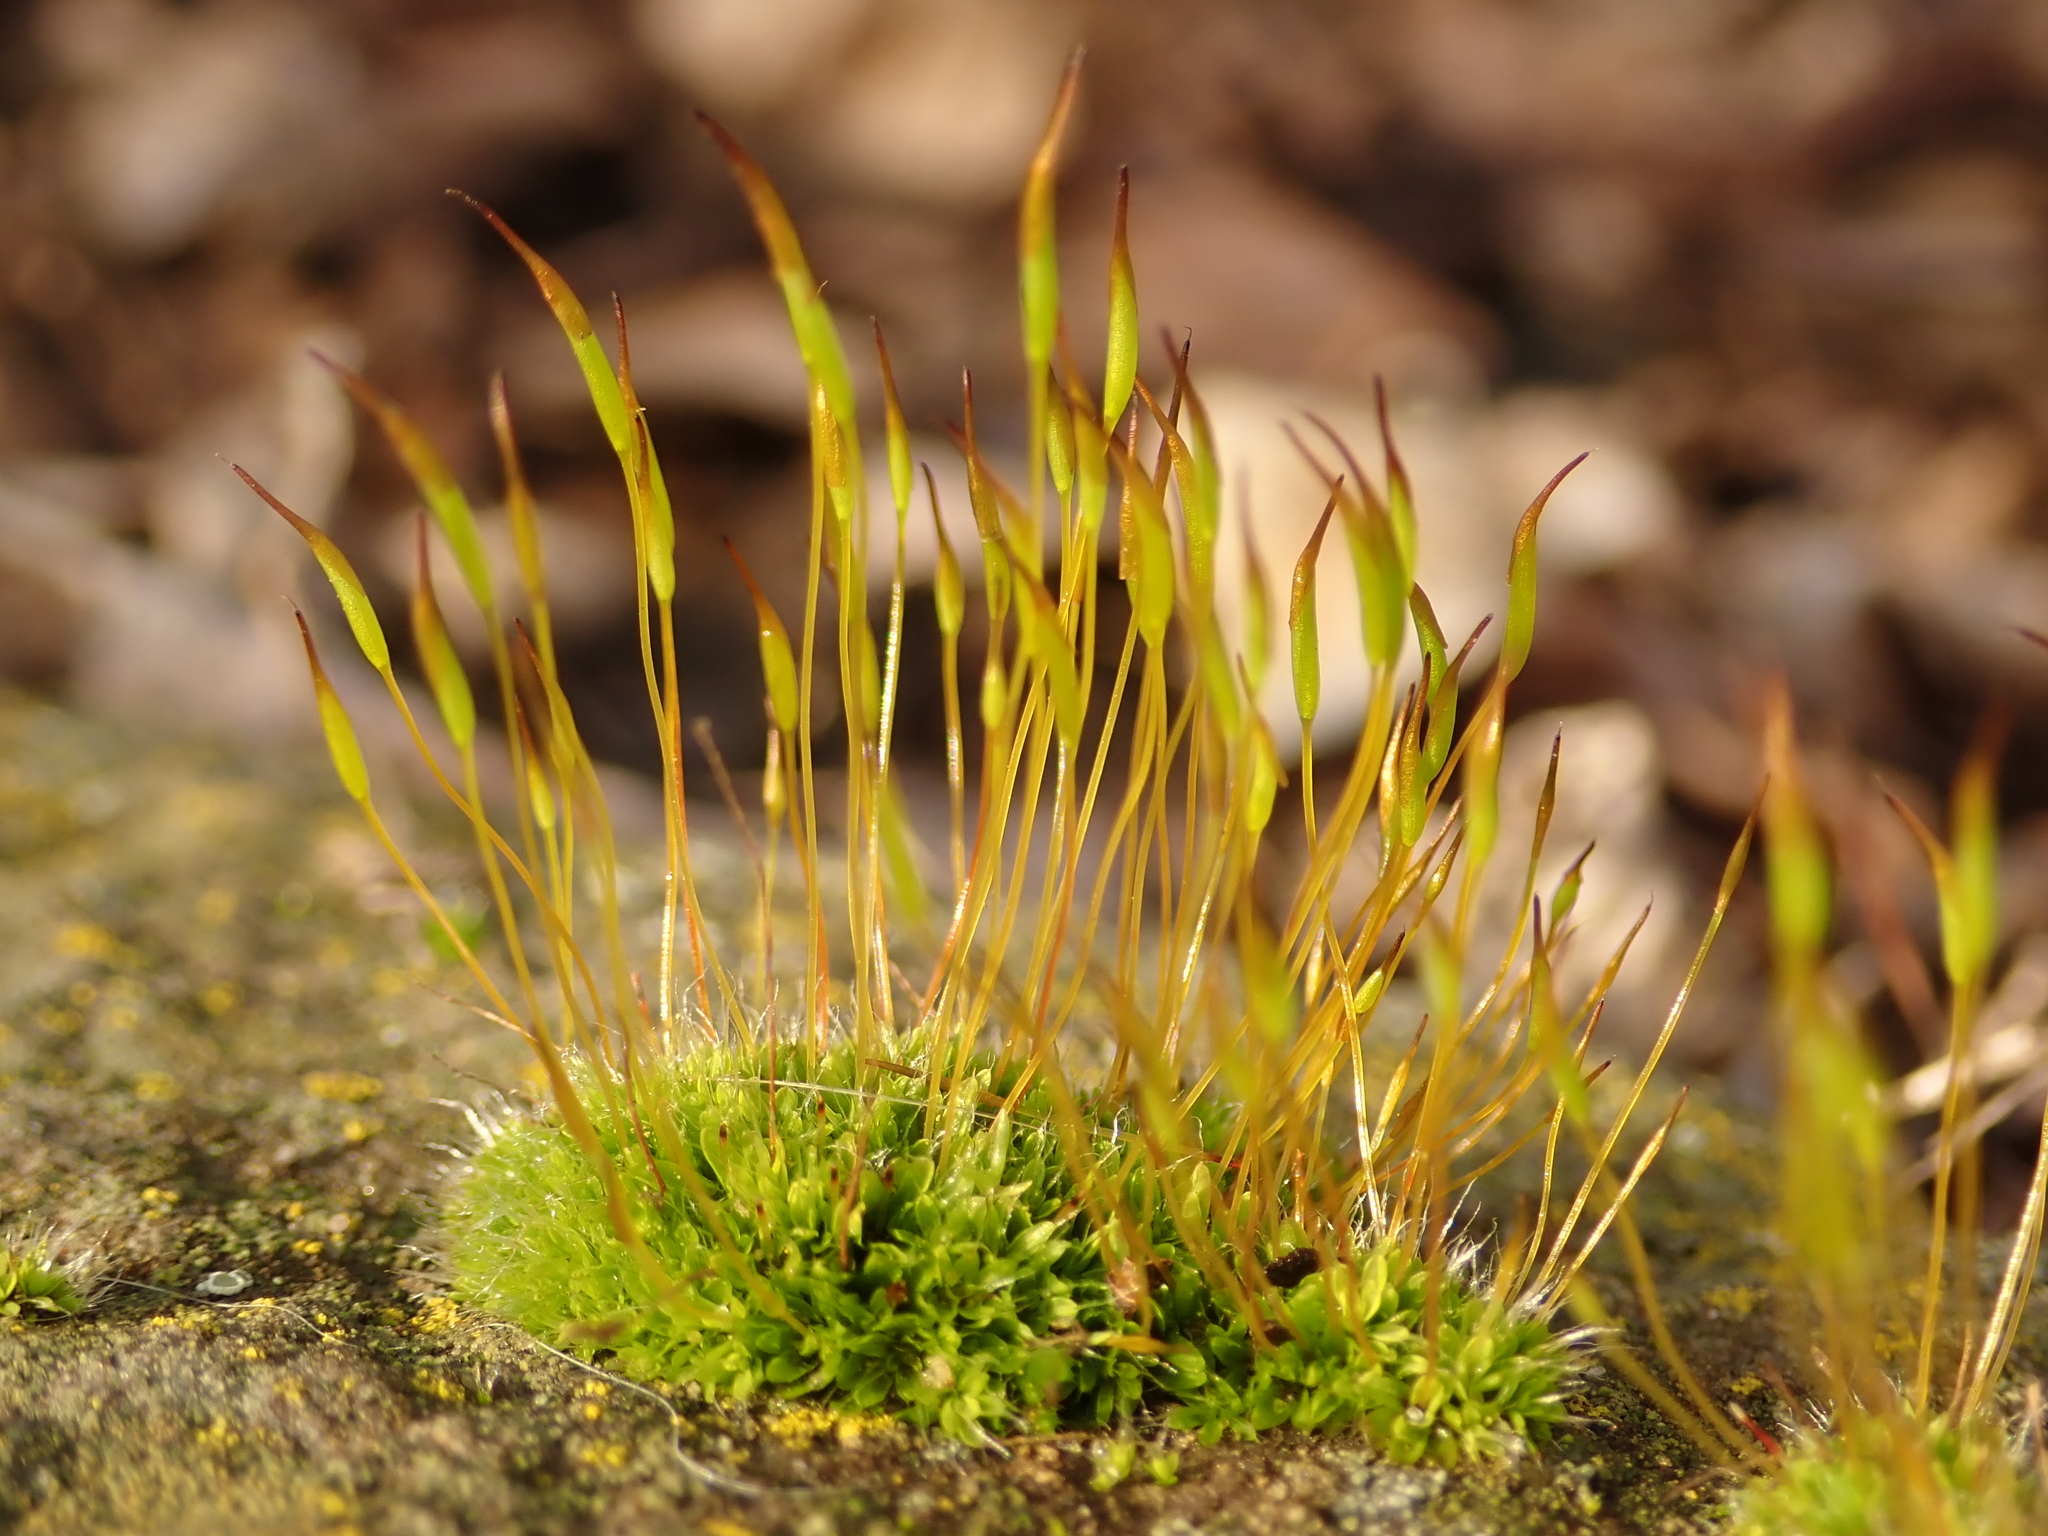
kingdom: Plantae
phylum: Bryophyta
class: Bryopsida
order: Pottiales
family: Pottiaceae
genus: Tortula
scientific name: Tortula muralis
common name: Wall screw-moss
